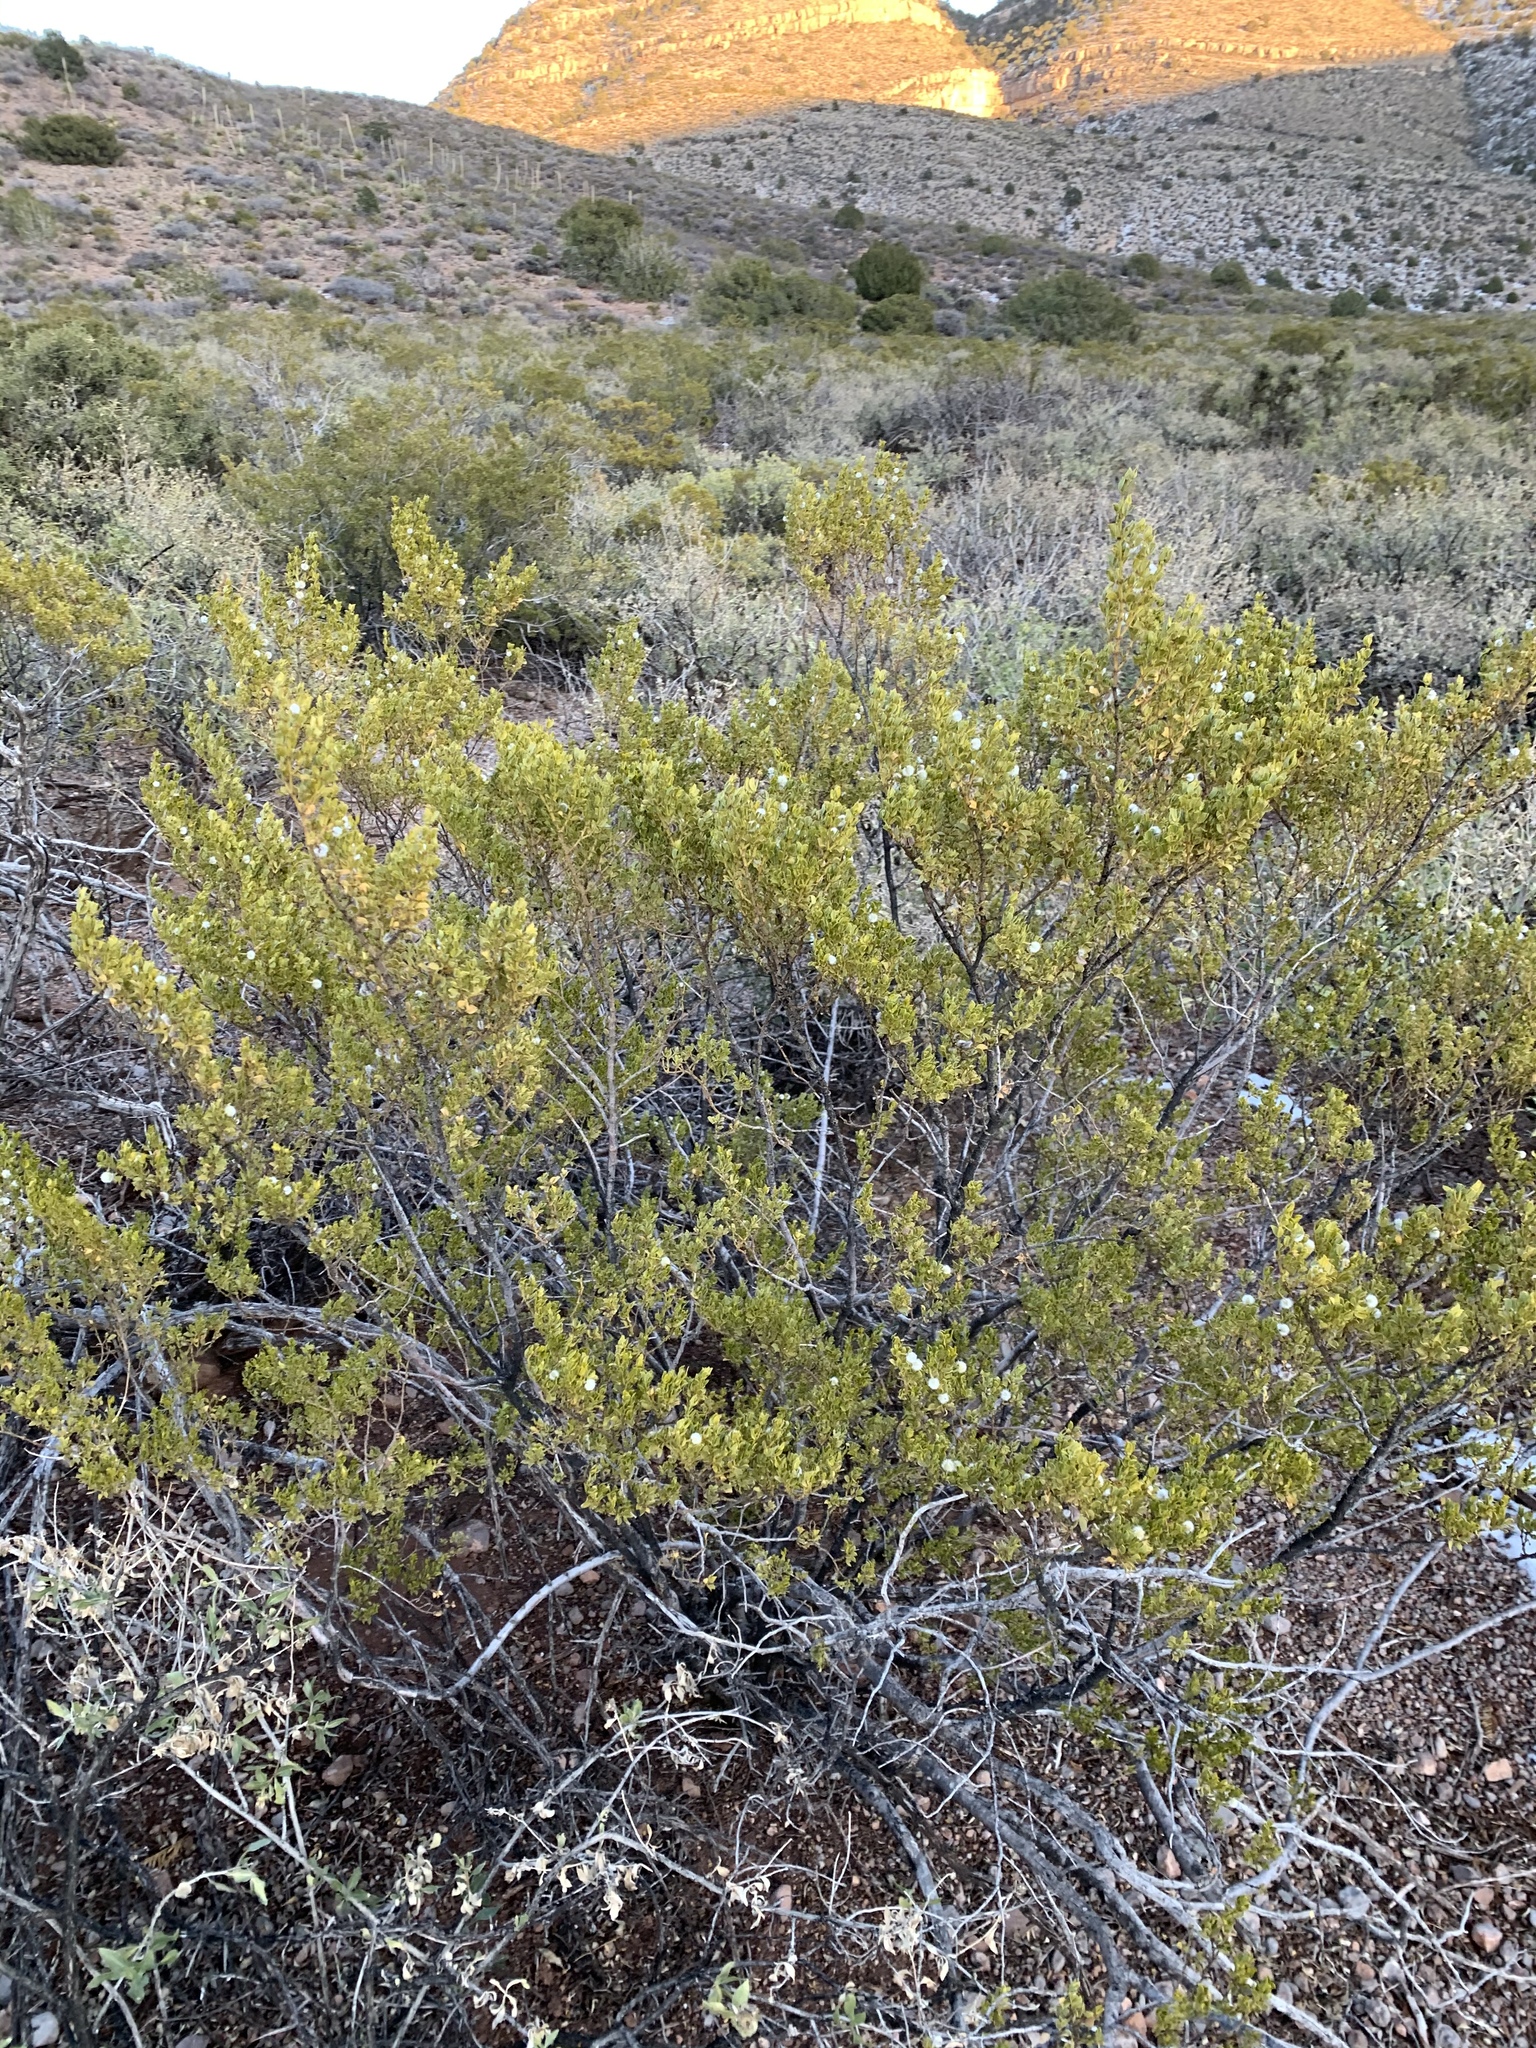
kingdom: Plantae
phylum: Tracheophyta
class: Magnoliopsida
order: Zygophyllales
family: Zygophyllaceae
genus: Larrea
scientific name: Larrea tridentata
